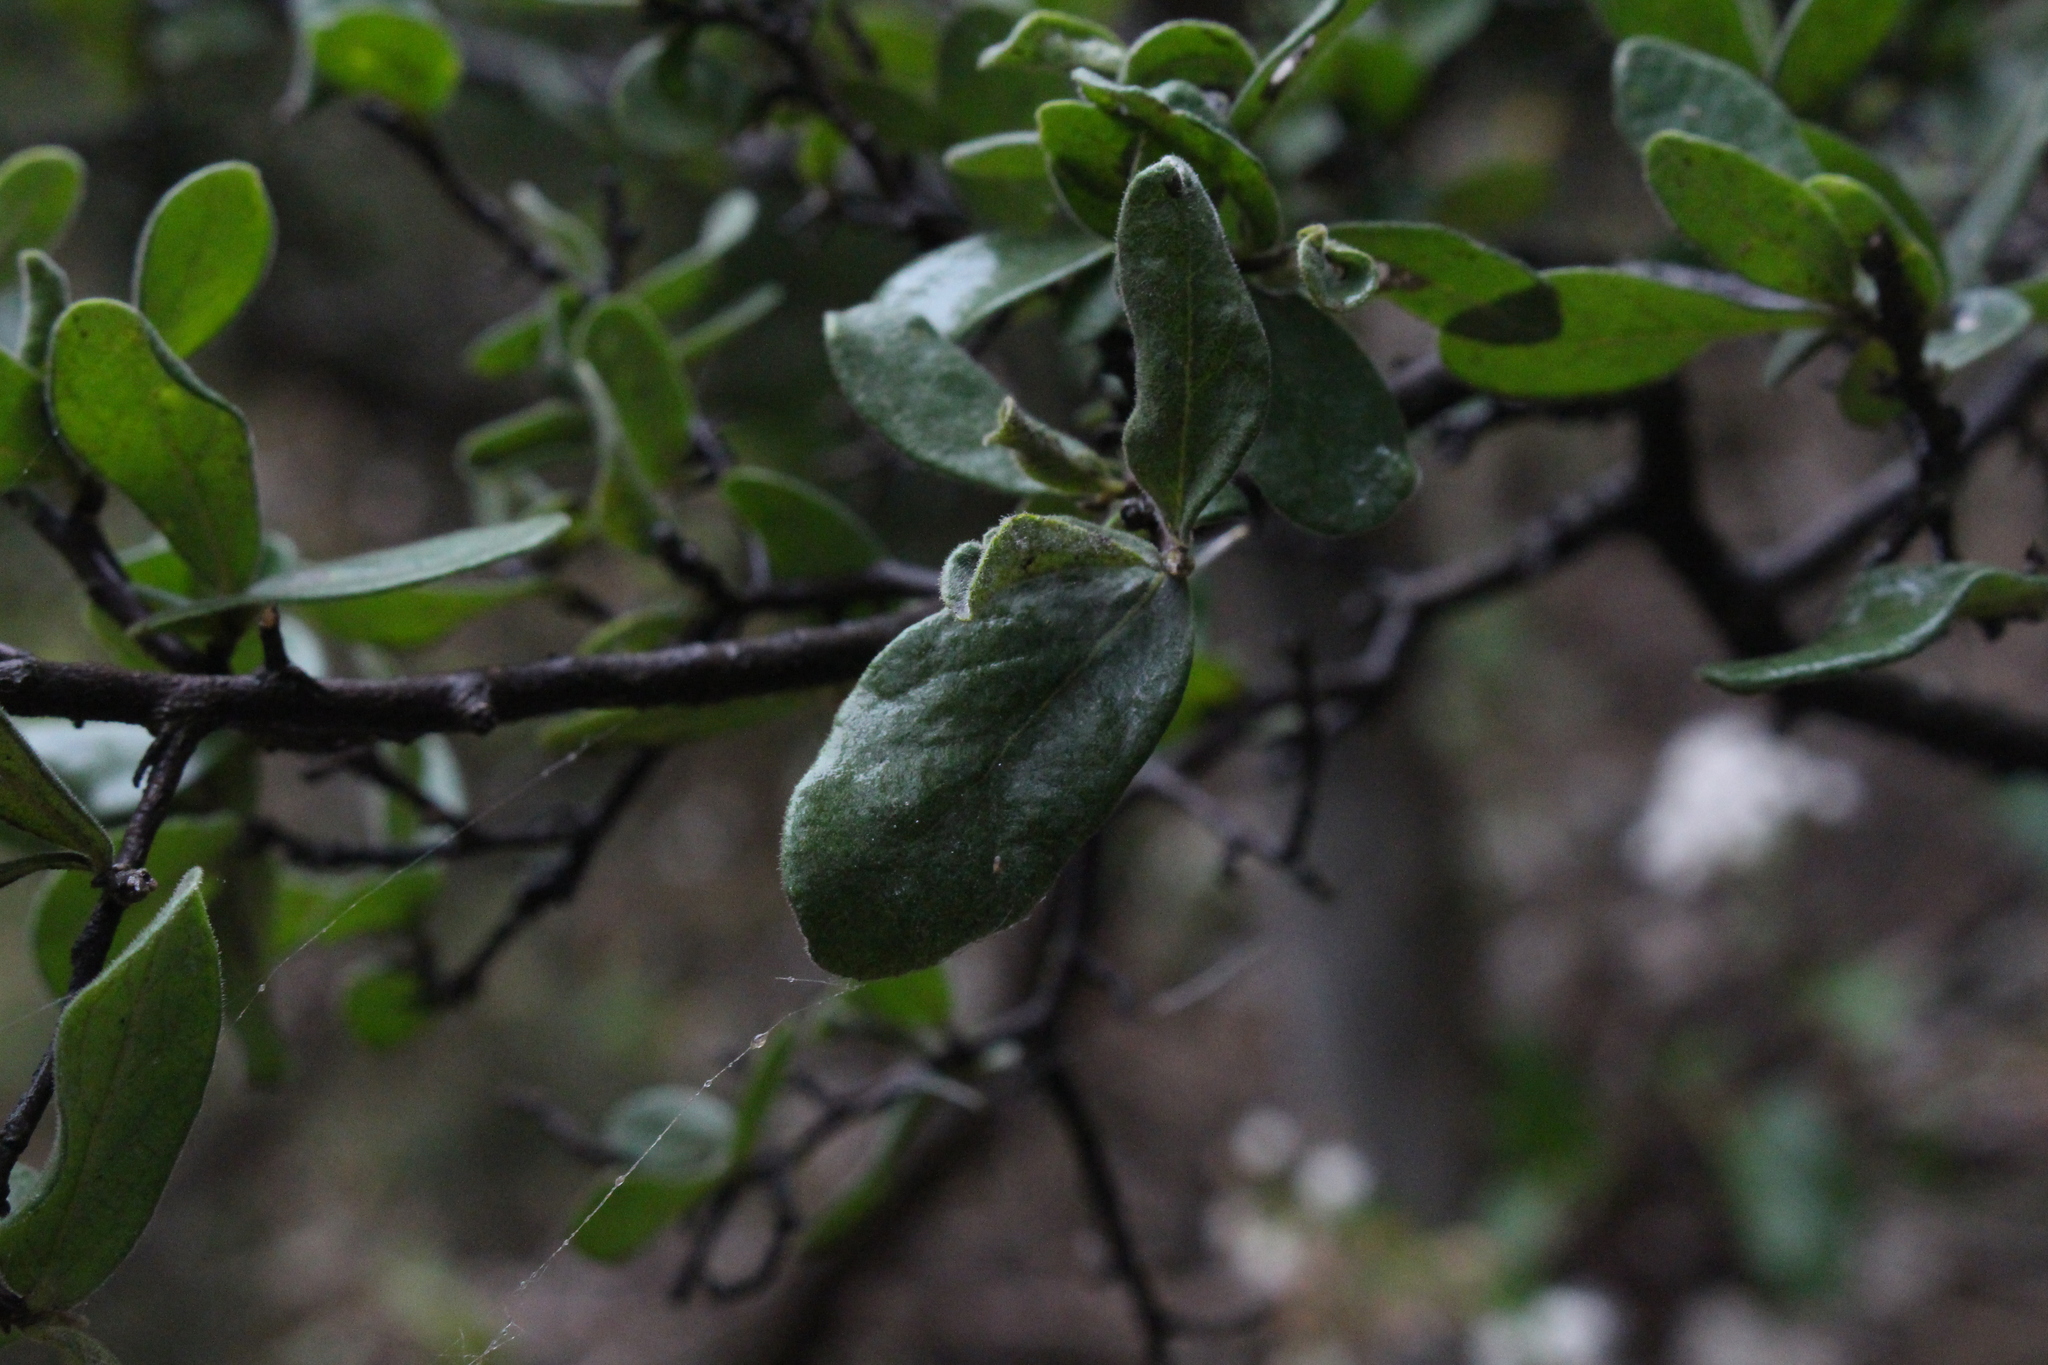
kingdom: Plantae
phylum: Tracheophyta
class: Magnoliopsida
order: Ericales
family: Ebenaceae
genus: Diospyros
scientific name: Diospyros texana
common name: Texas persimmon
